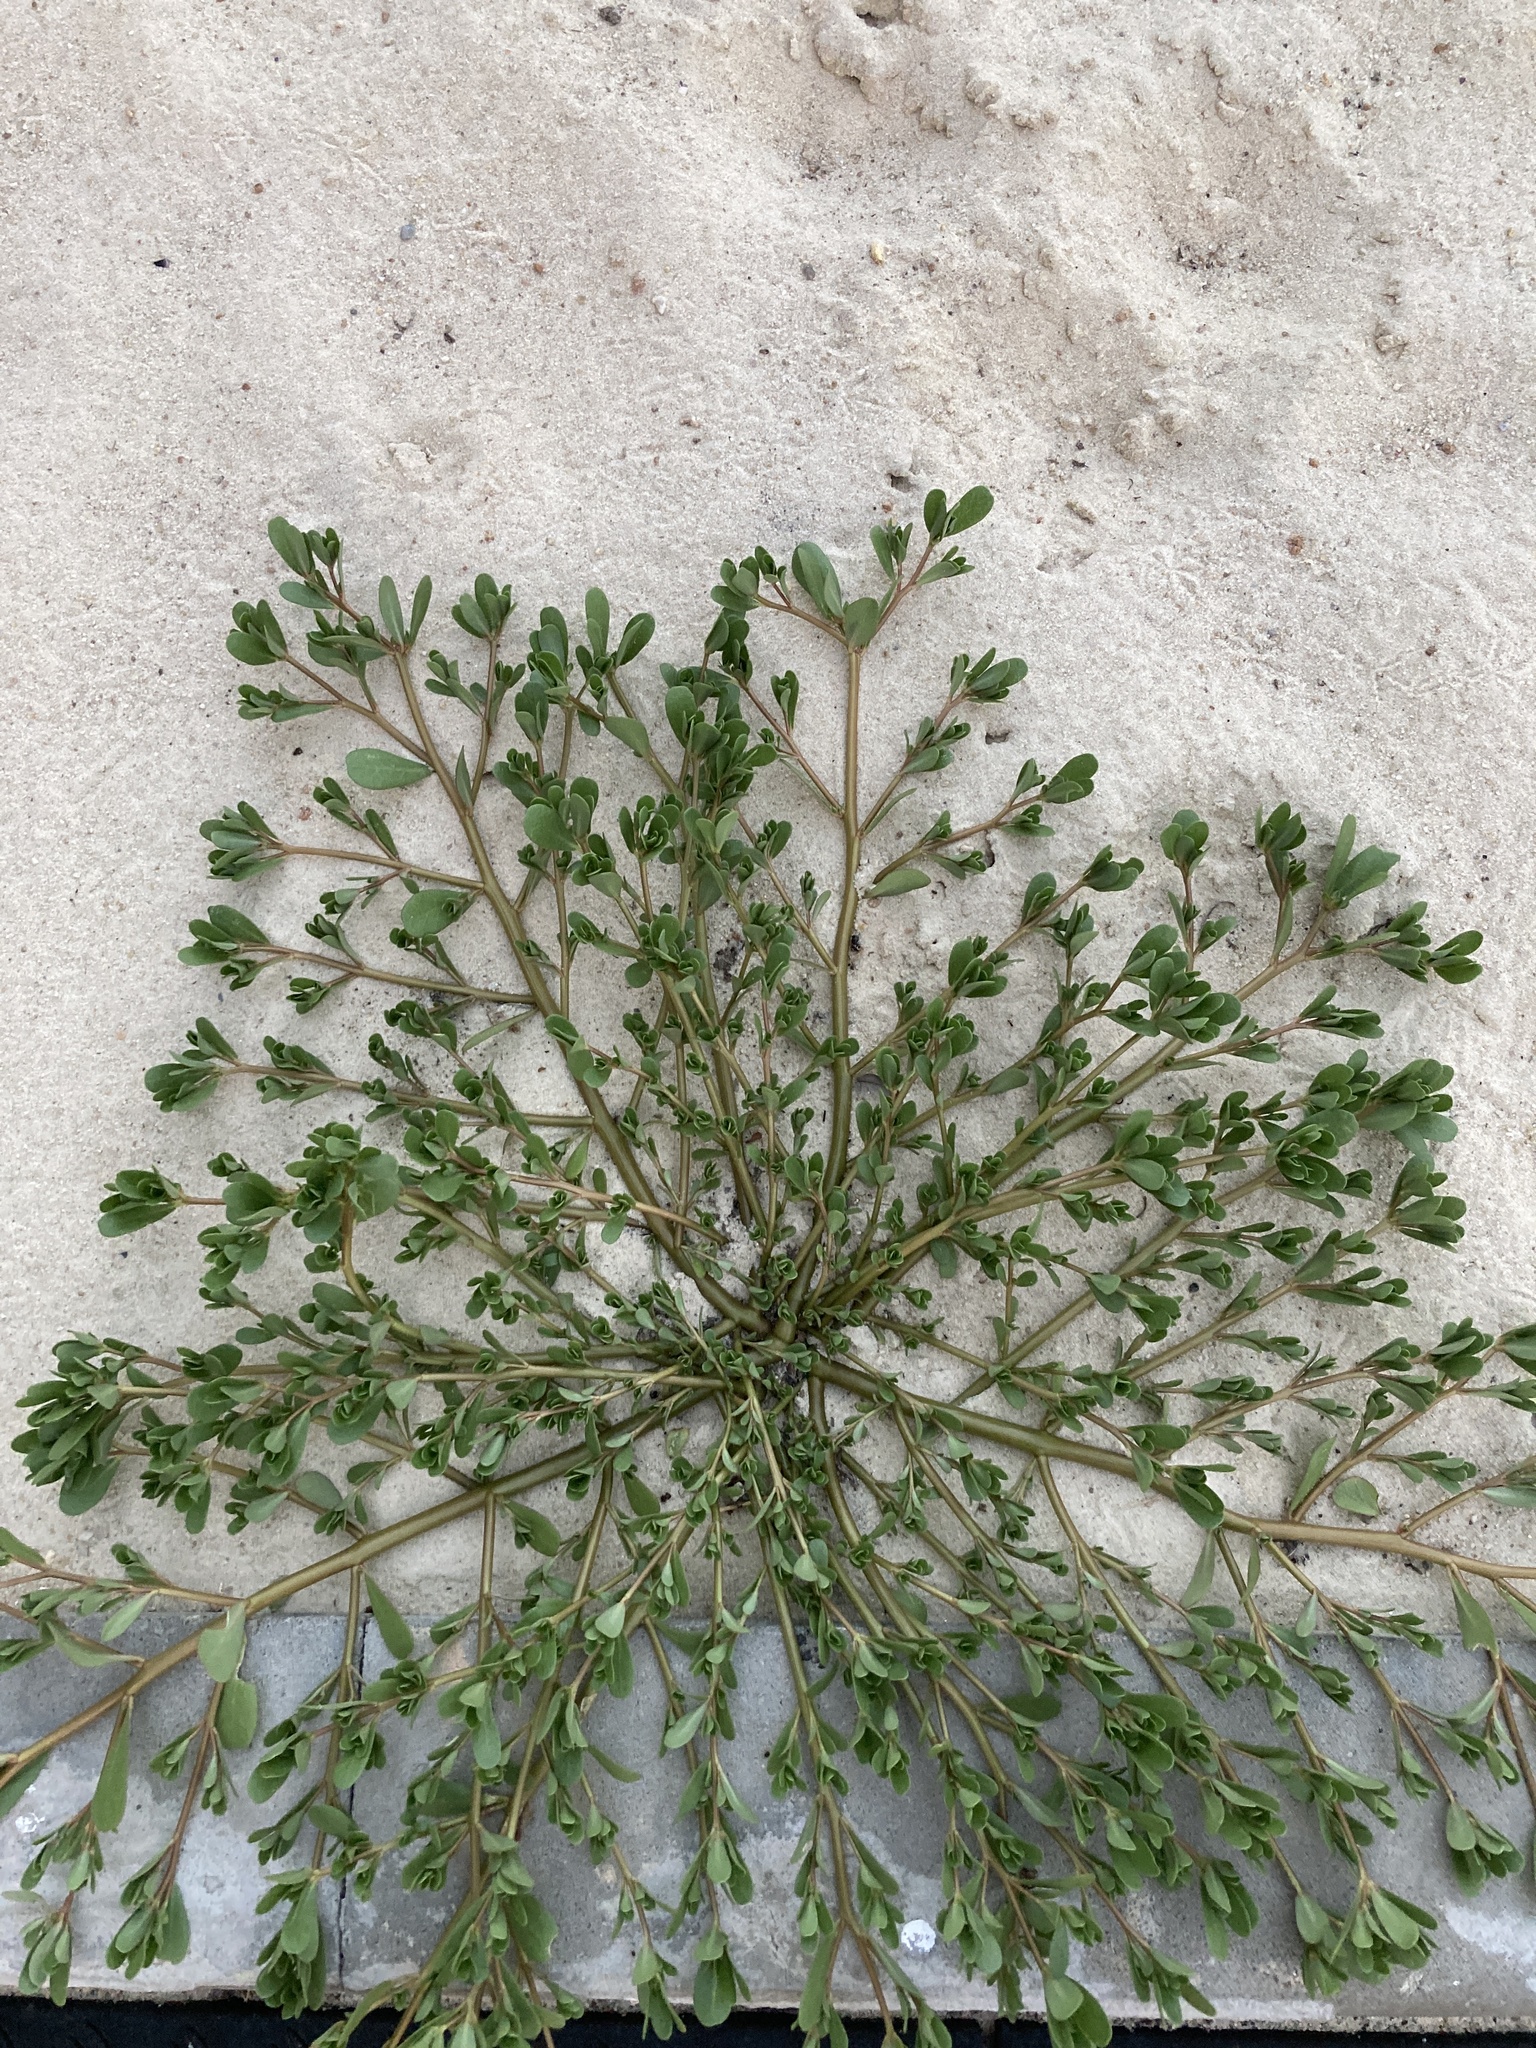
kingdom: Plantae
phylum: Tracheophyta
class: Magnoliopsida
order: Caryophyllales
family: Portulacaceae
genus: Portulaca
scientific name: Portulaca oleracea
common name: Common purslane
